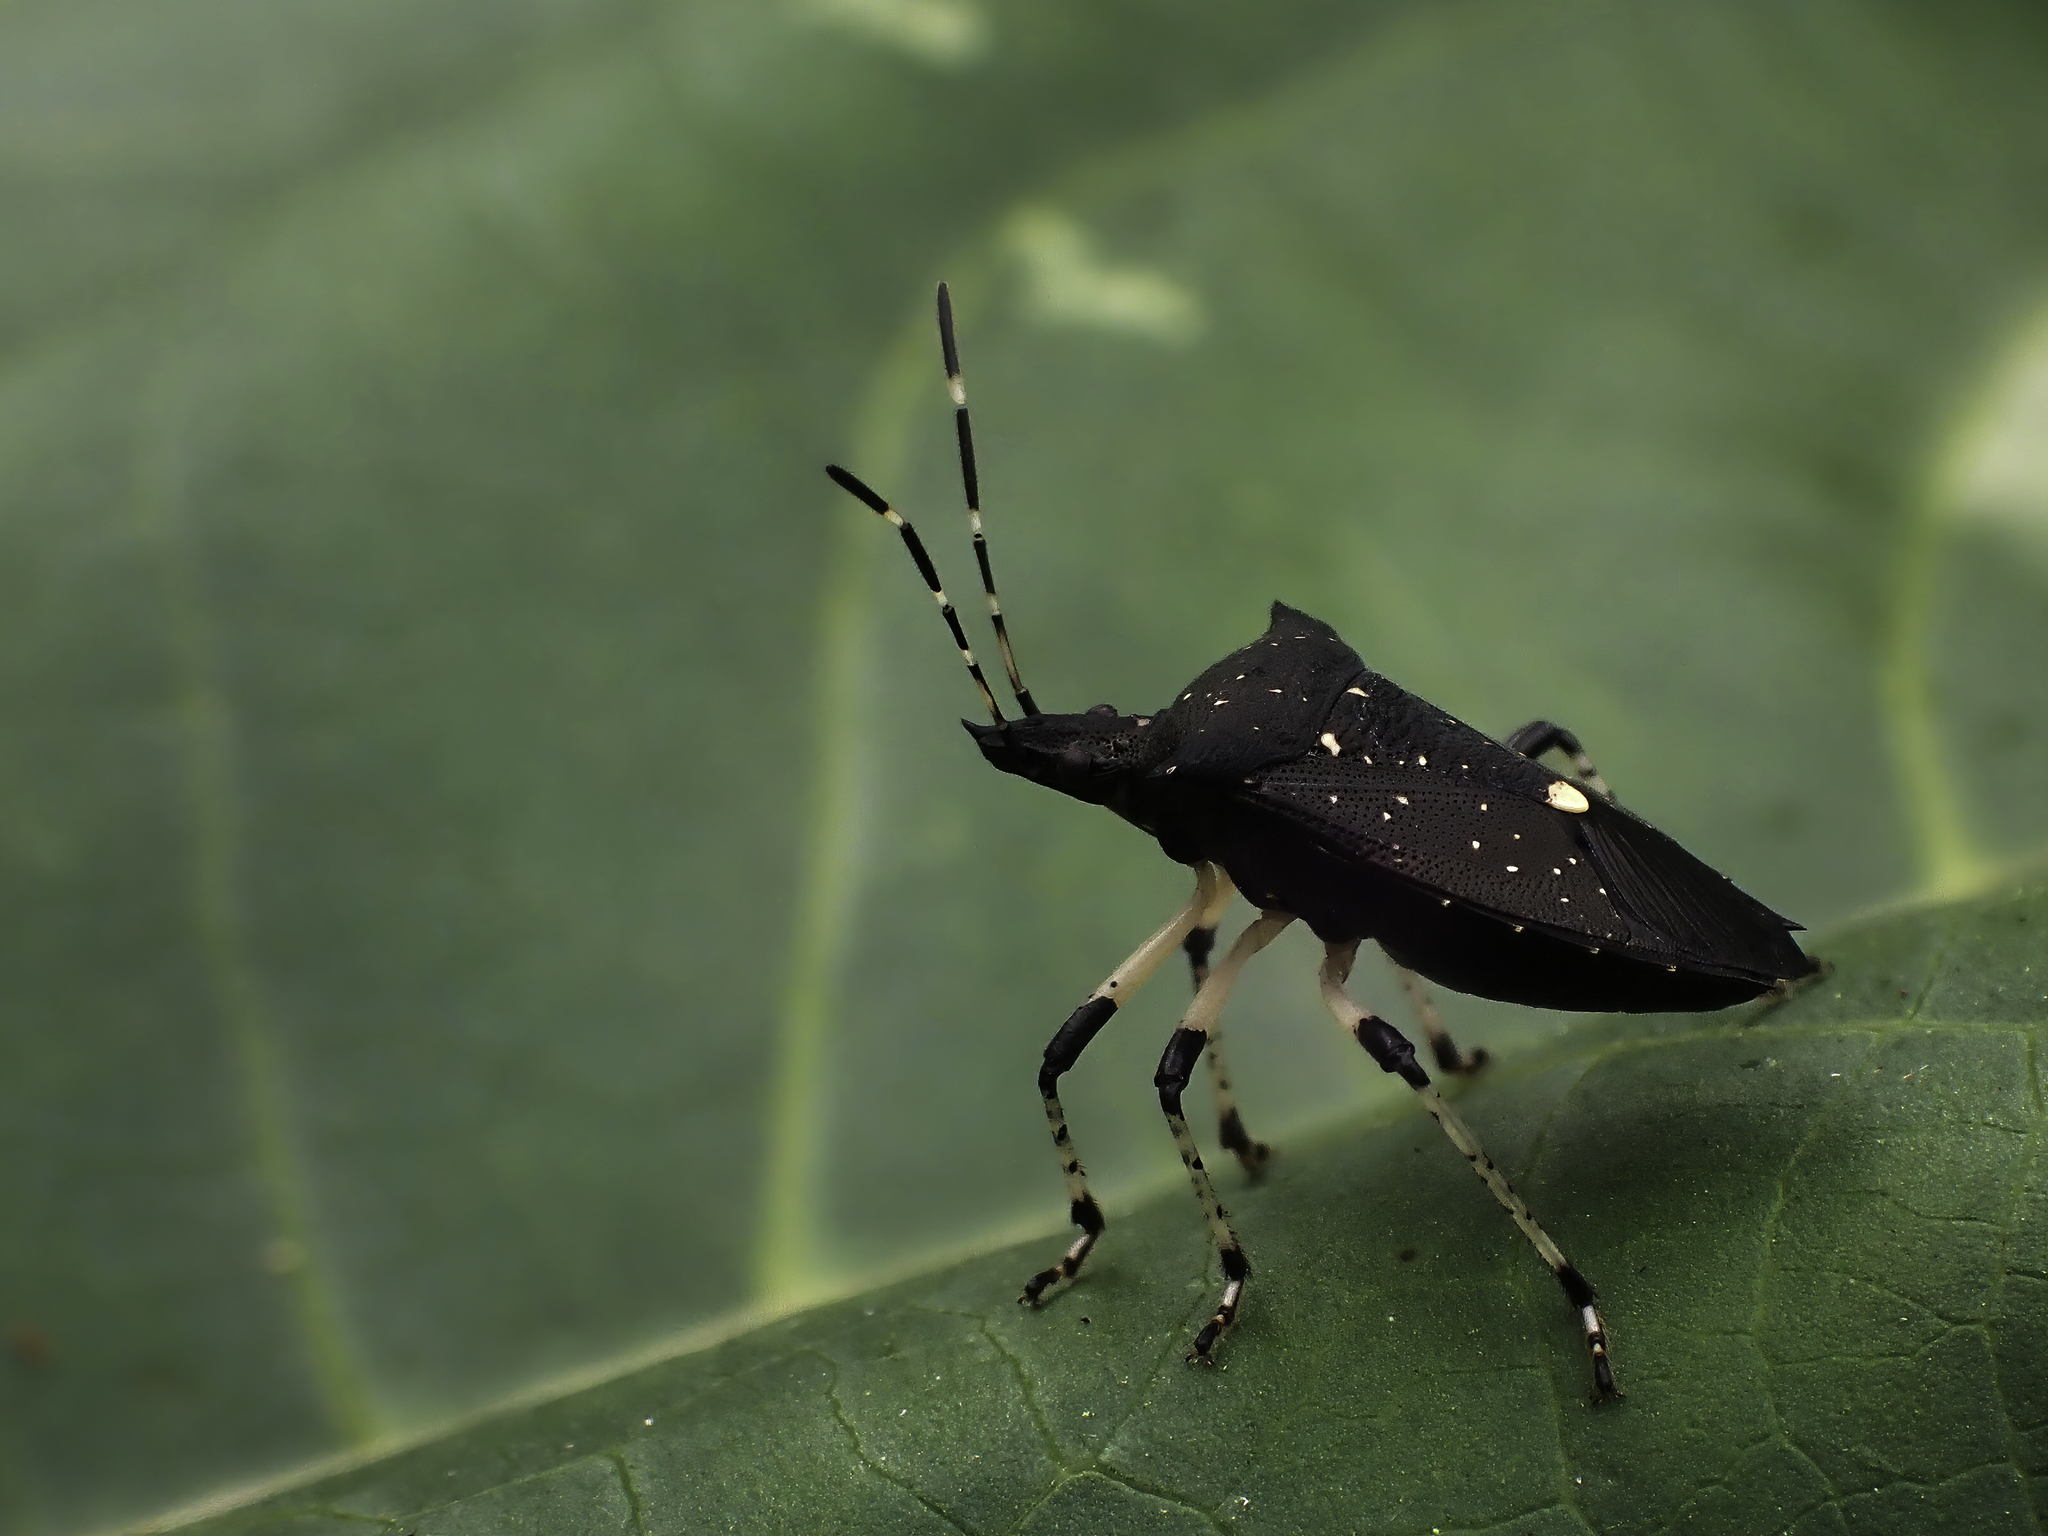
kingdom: Animalia
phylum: Arthropoda
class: Insecta
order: Hemiptera
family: Pentatomidae
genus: Proxys
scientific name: Proxys punctulatus
